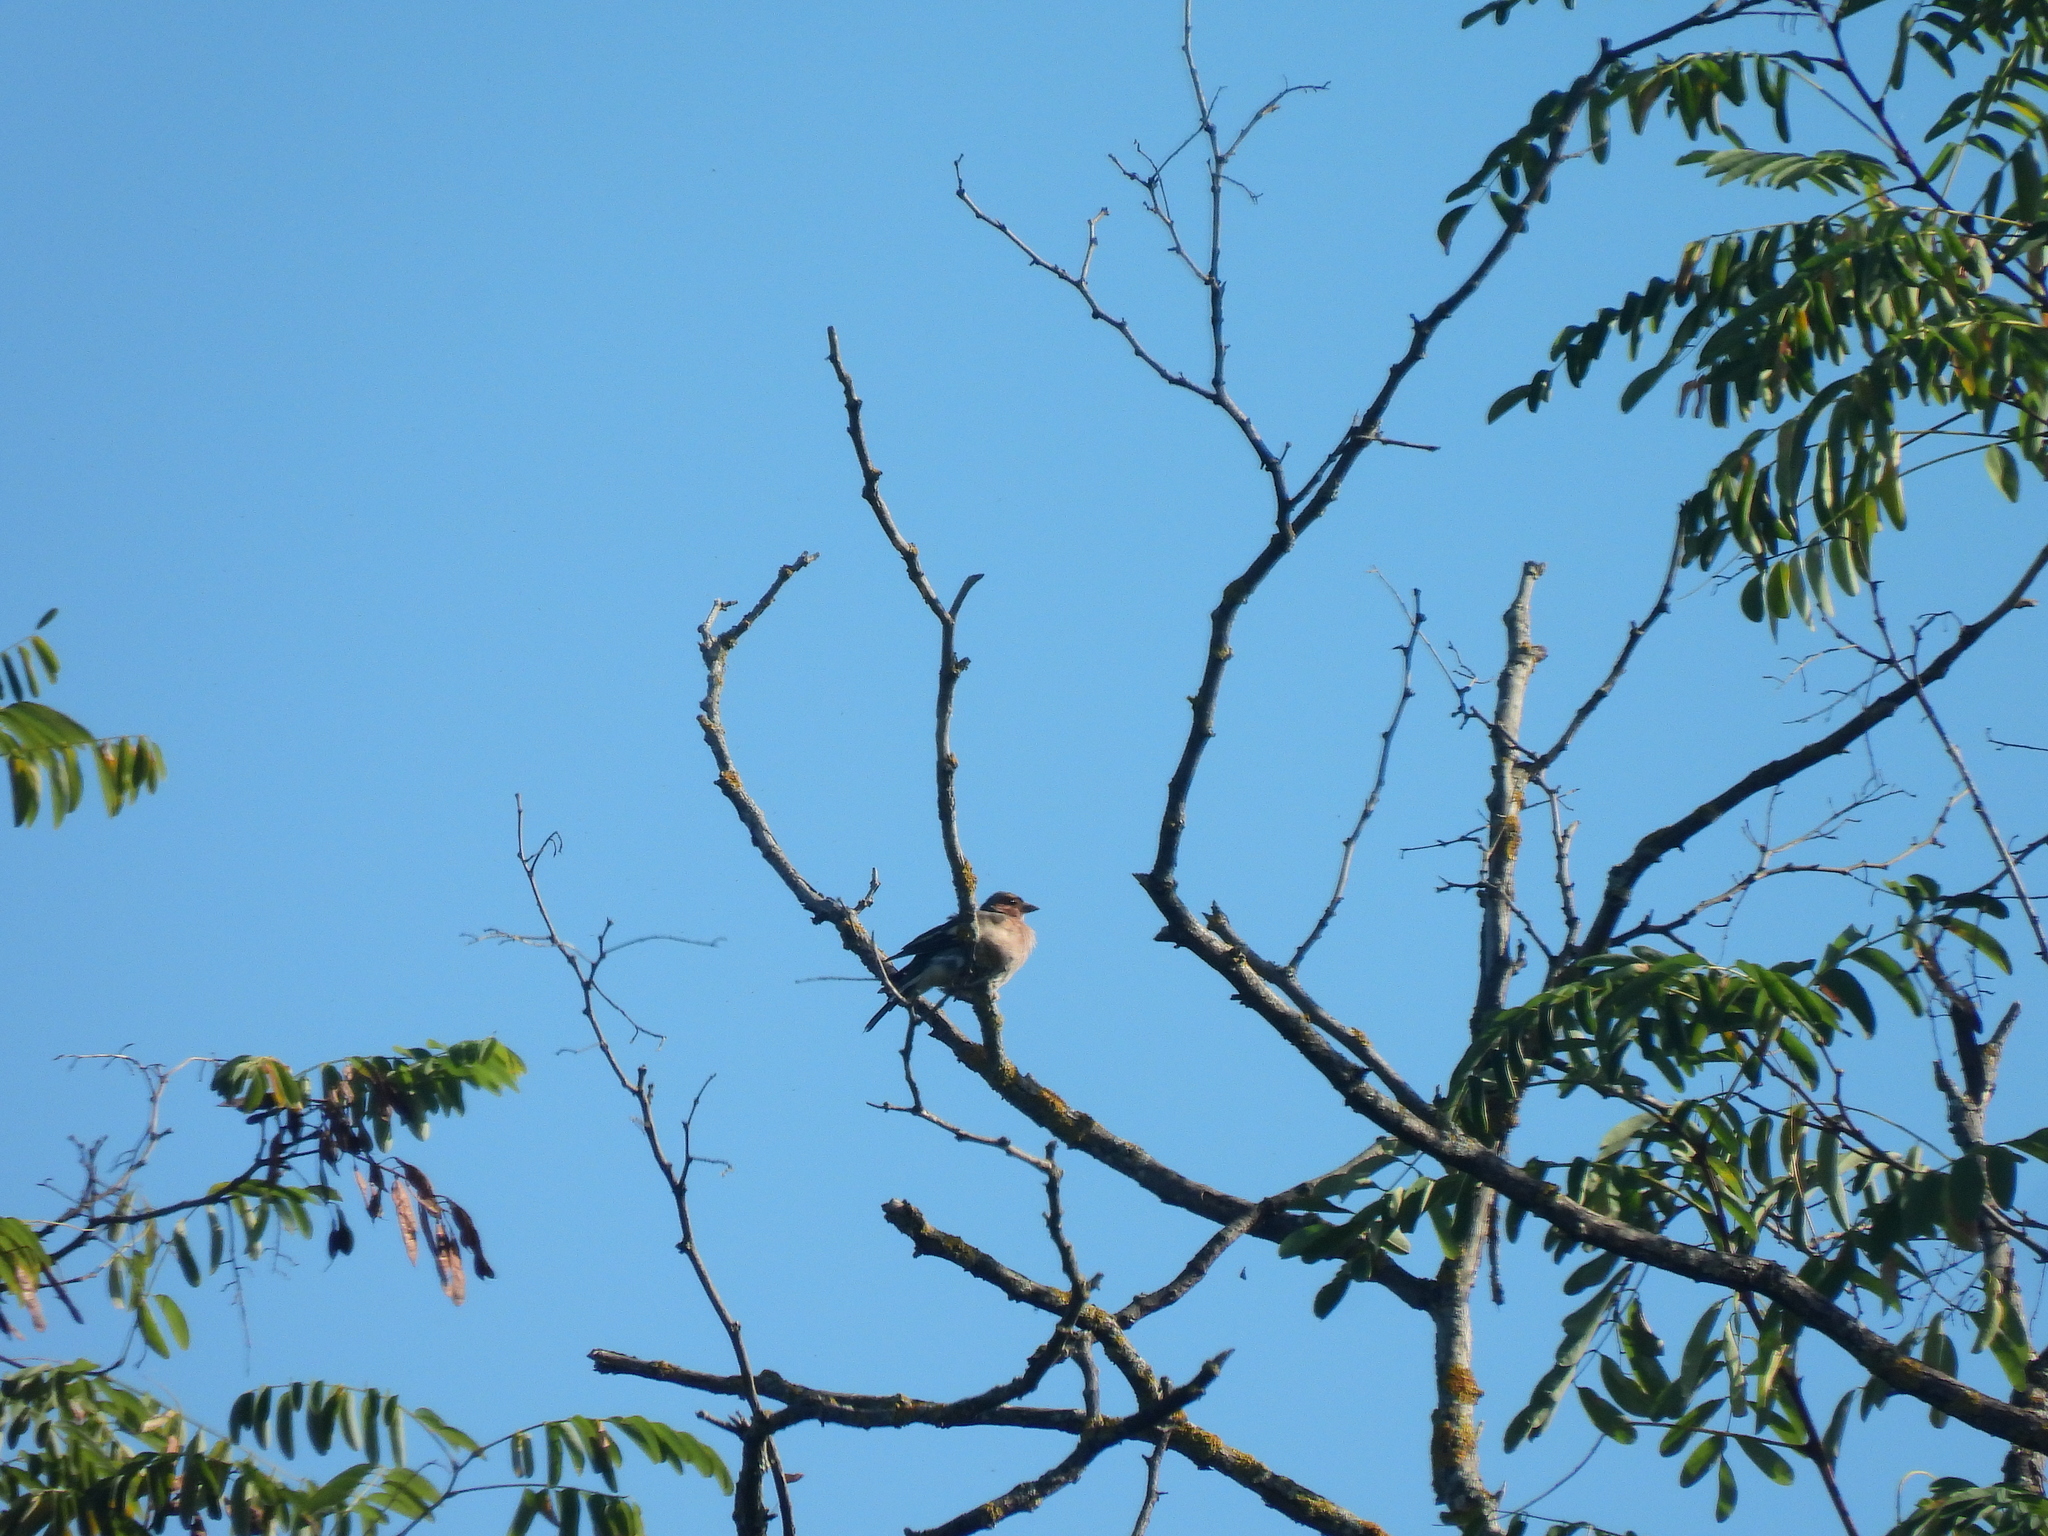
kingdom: Animalia
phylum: Chordata
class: Aves
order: Passeriformes
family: Fringillidae
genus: Fringilla
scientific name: Fringilla coelebs
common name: Common chaffinch
